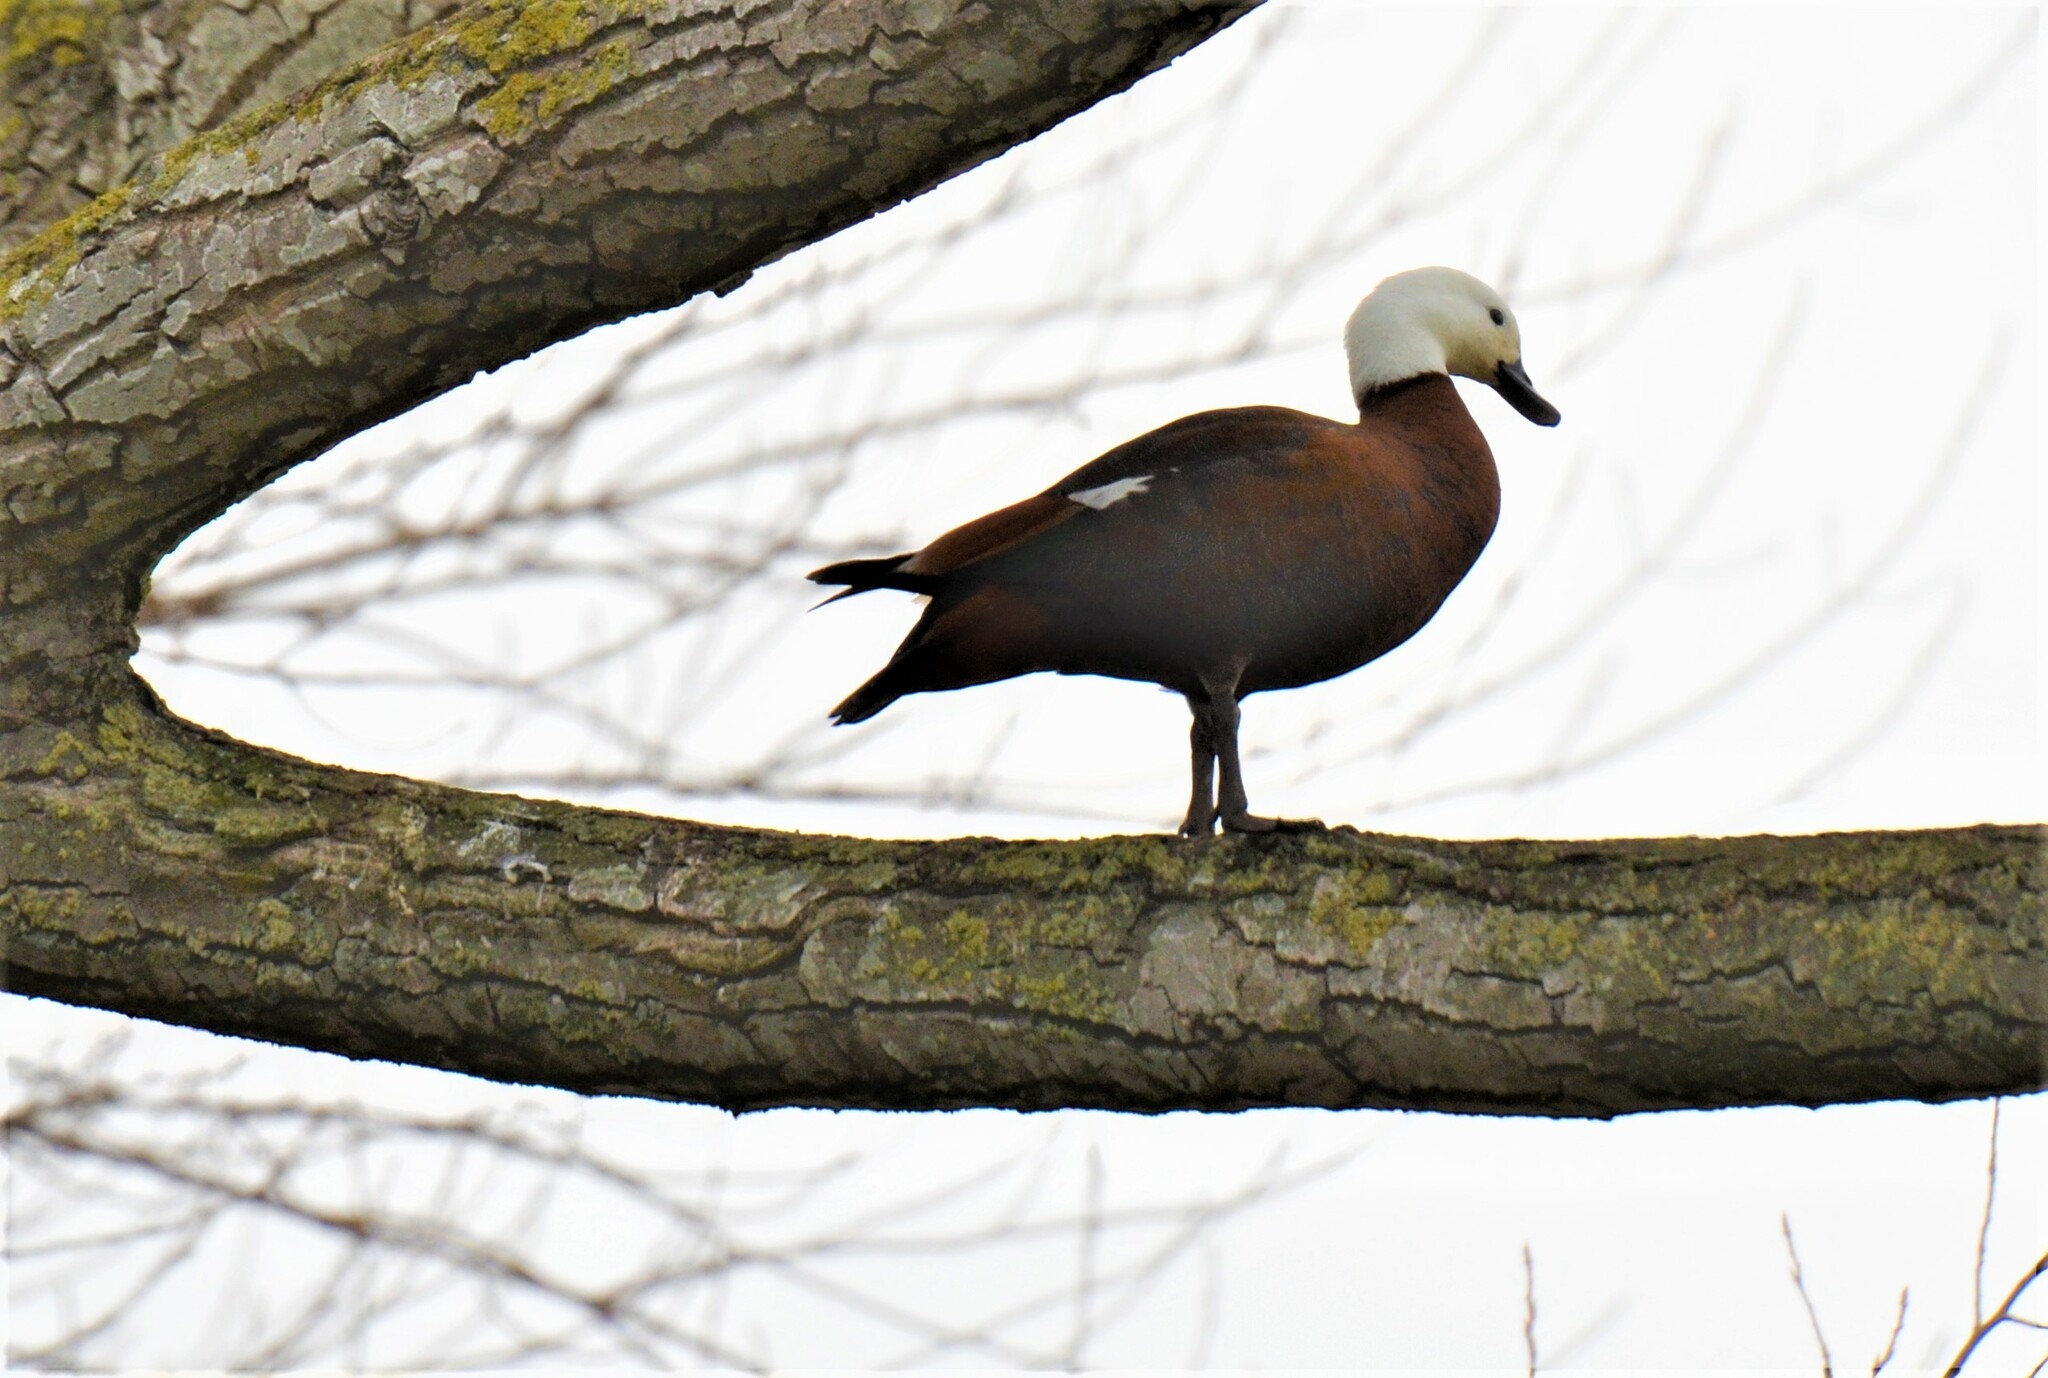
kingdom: Animalia
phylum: Chordata
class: Aves
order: Anseriformes
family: Anatidae
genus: Tadorna
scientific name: Tadorna variegata
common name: Paradise shelduck
